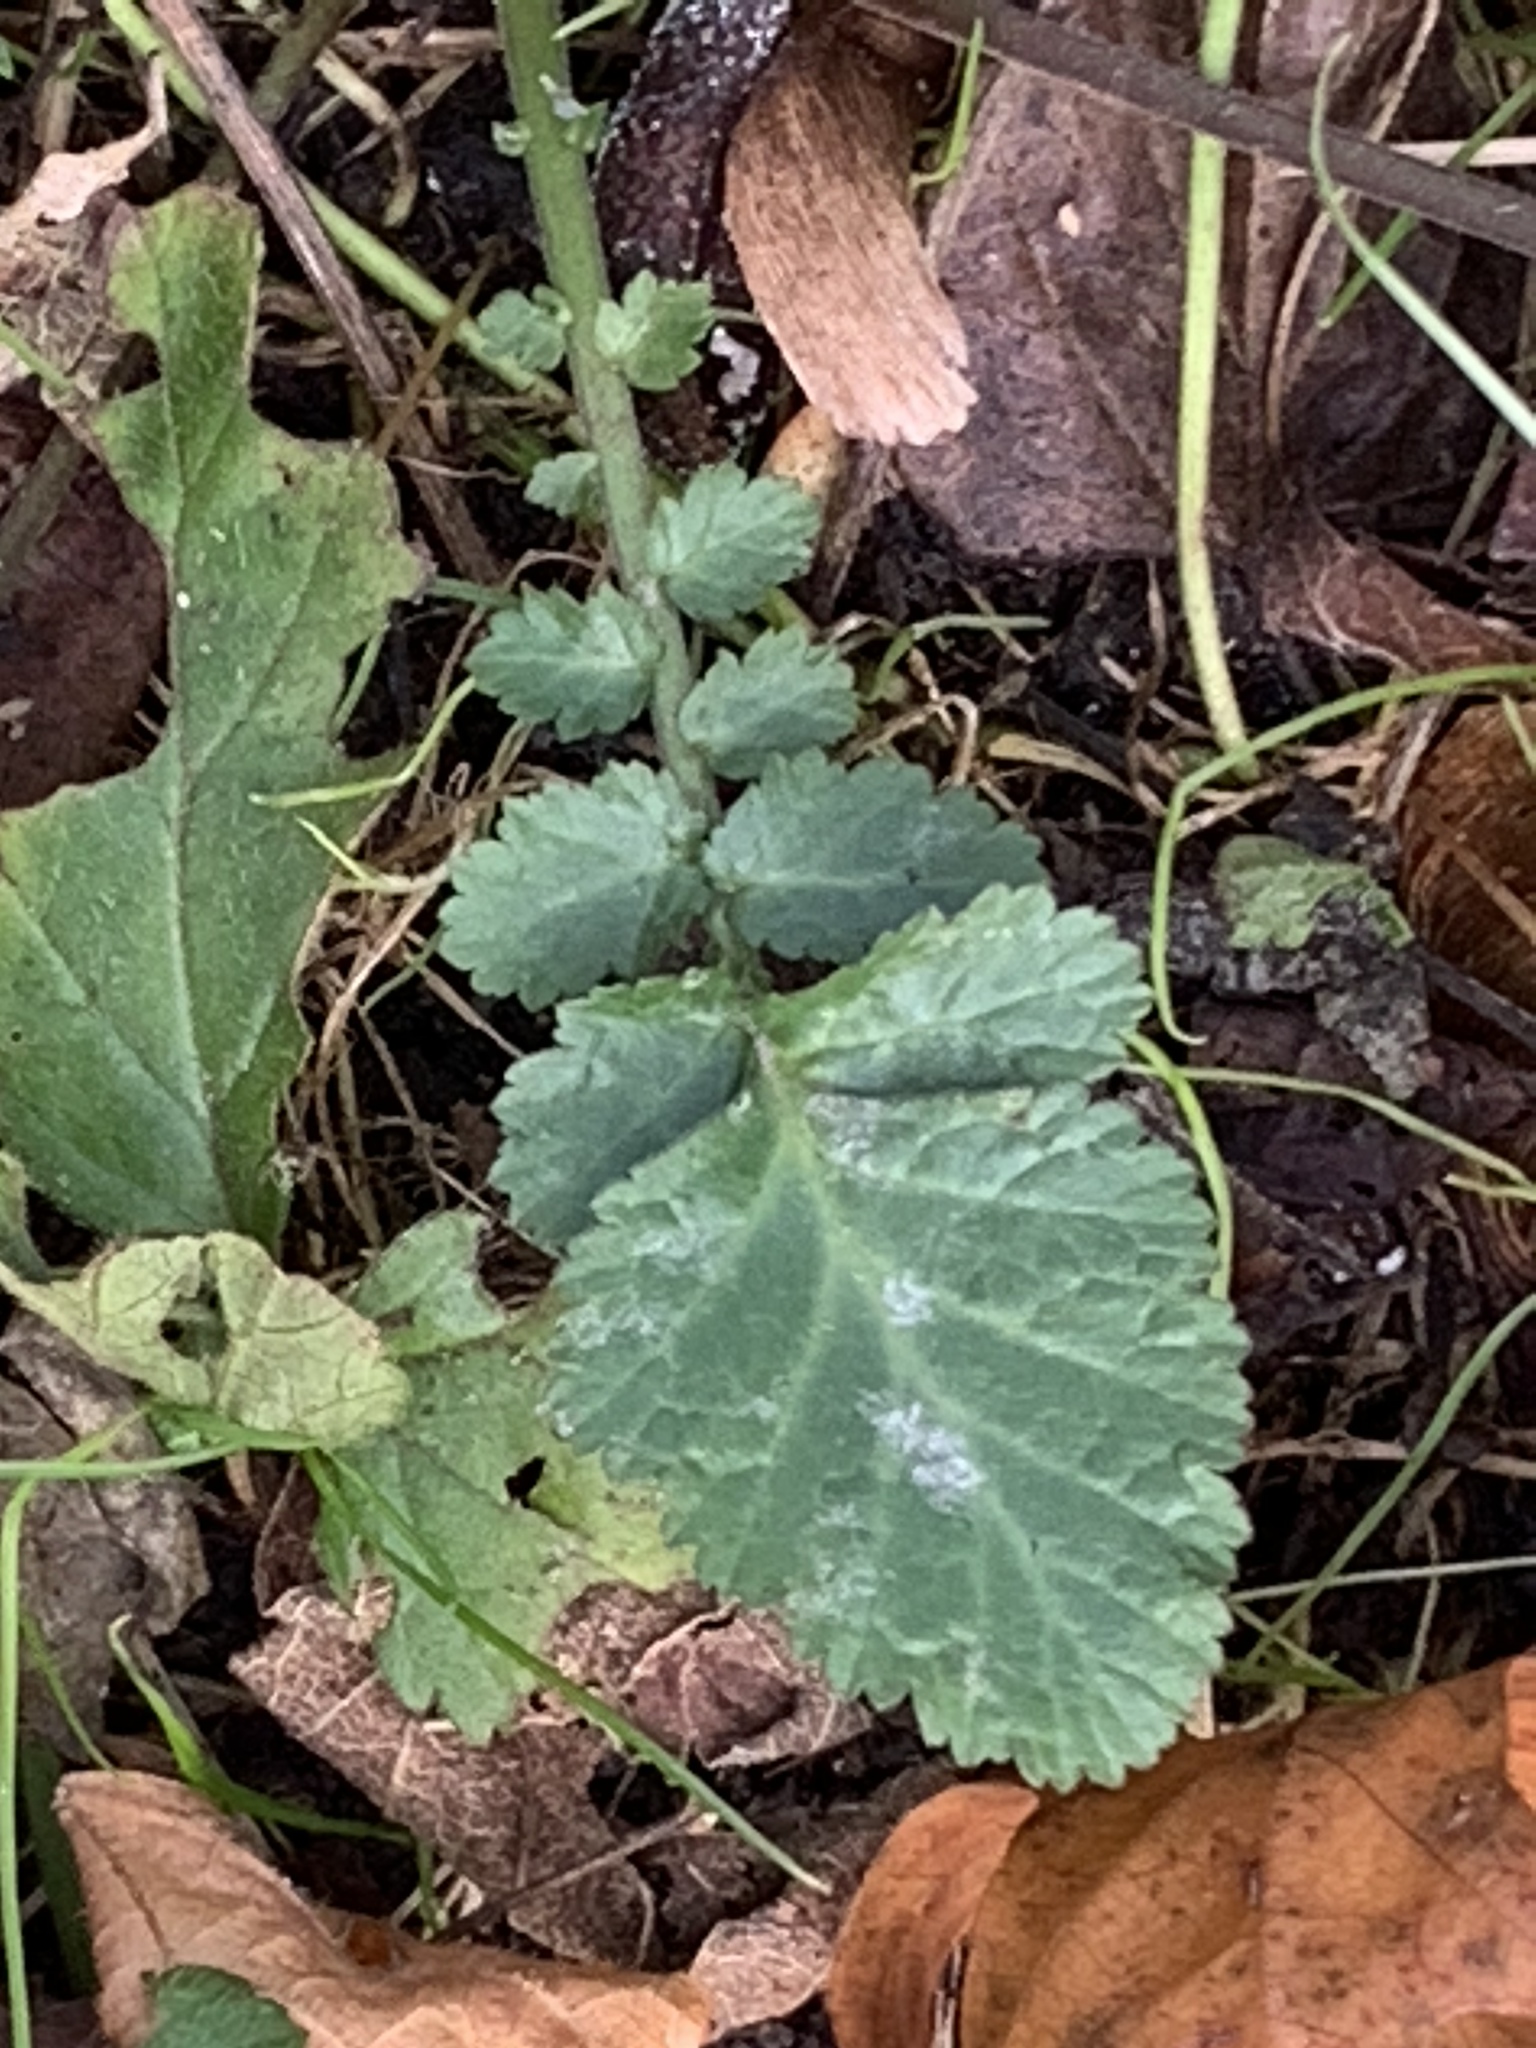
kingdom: Plantae
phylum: Tracheophyta
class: Magnoliopsida
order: Rosales
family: Rosaceae
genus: Geum
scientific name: Geum canadense
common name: White avens
